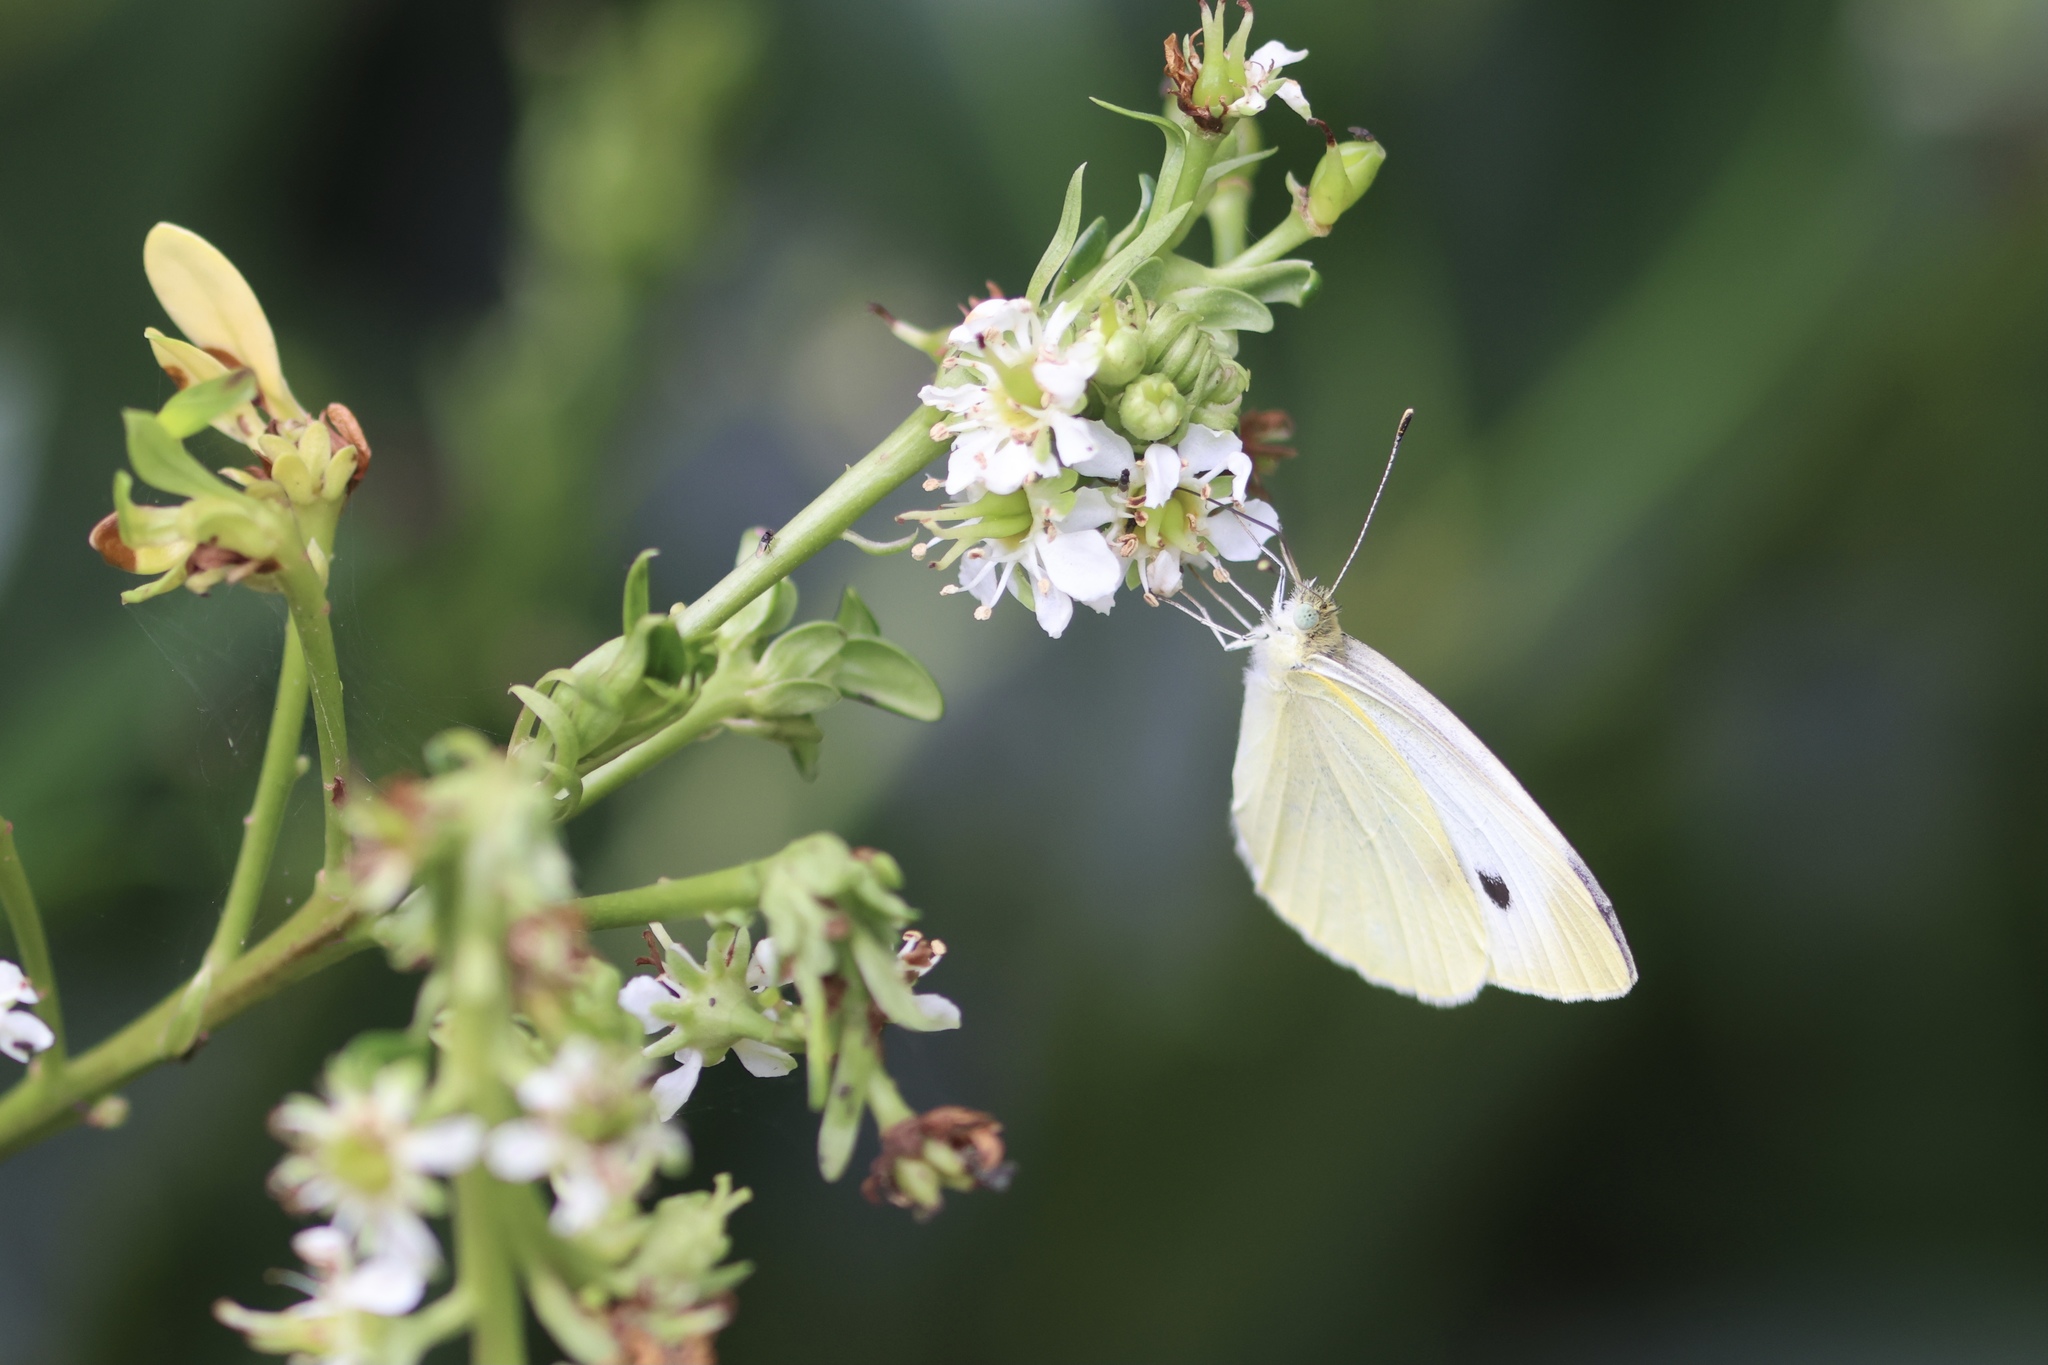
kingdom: Animalia
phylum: Arthropoda
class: Insecta
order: Lepidoptera
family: Pieridae
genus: Pieris
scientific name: Pieris rapae
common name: Small white
